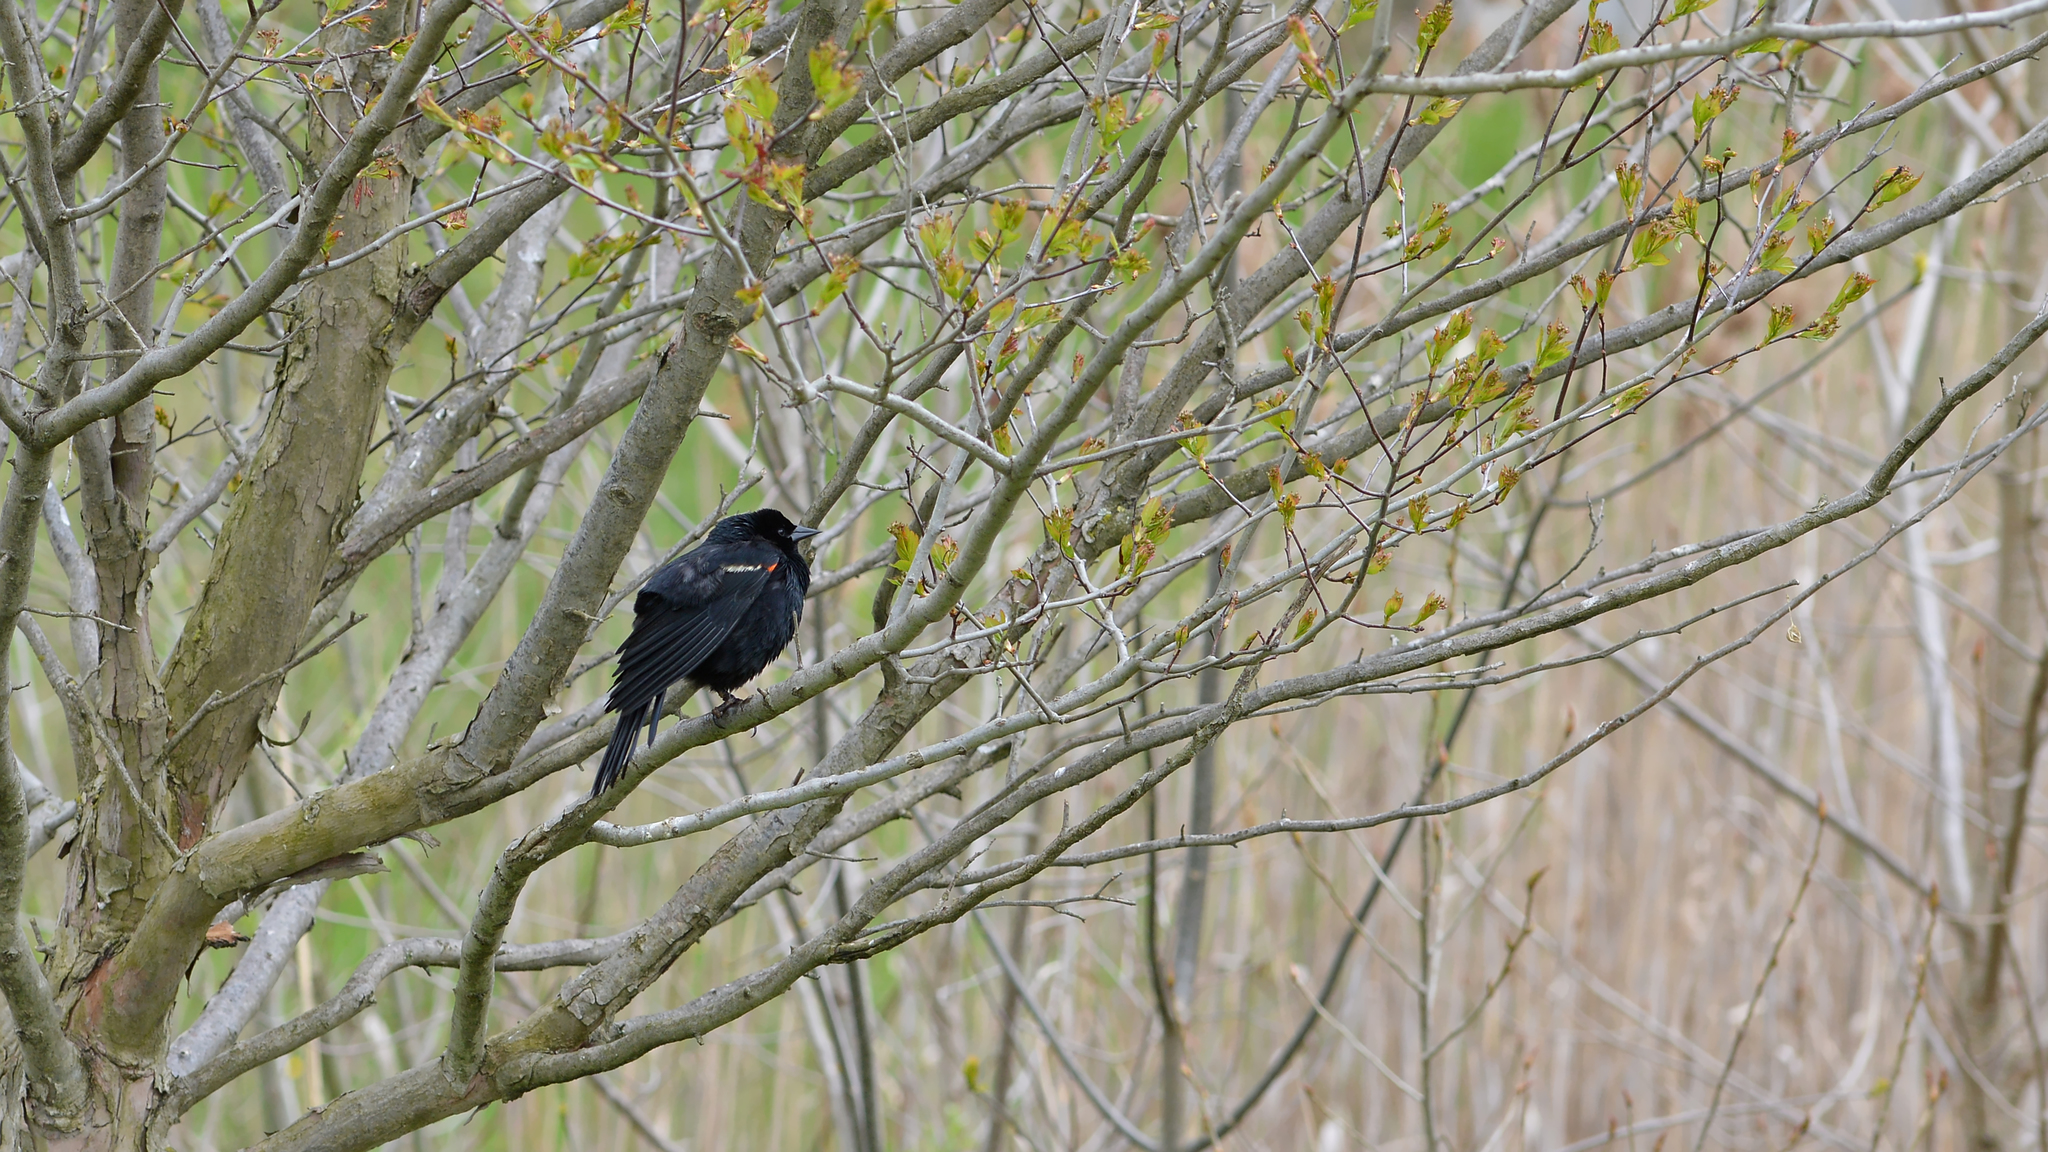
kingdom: Animalia
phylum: Chordata
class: Aves
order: Passeriformes
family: Icteridae
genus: Agelaius
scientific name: Agelaius phoeniceus
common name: Red-winged blackbird
